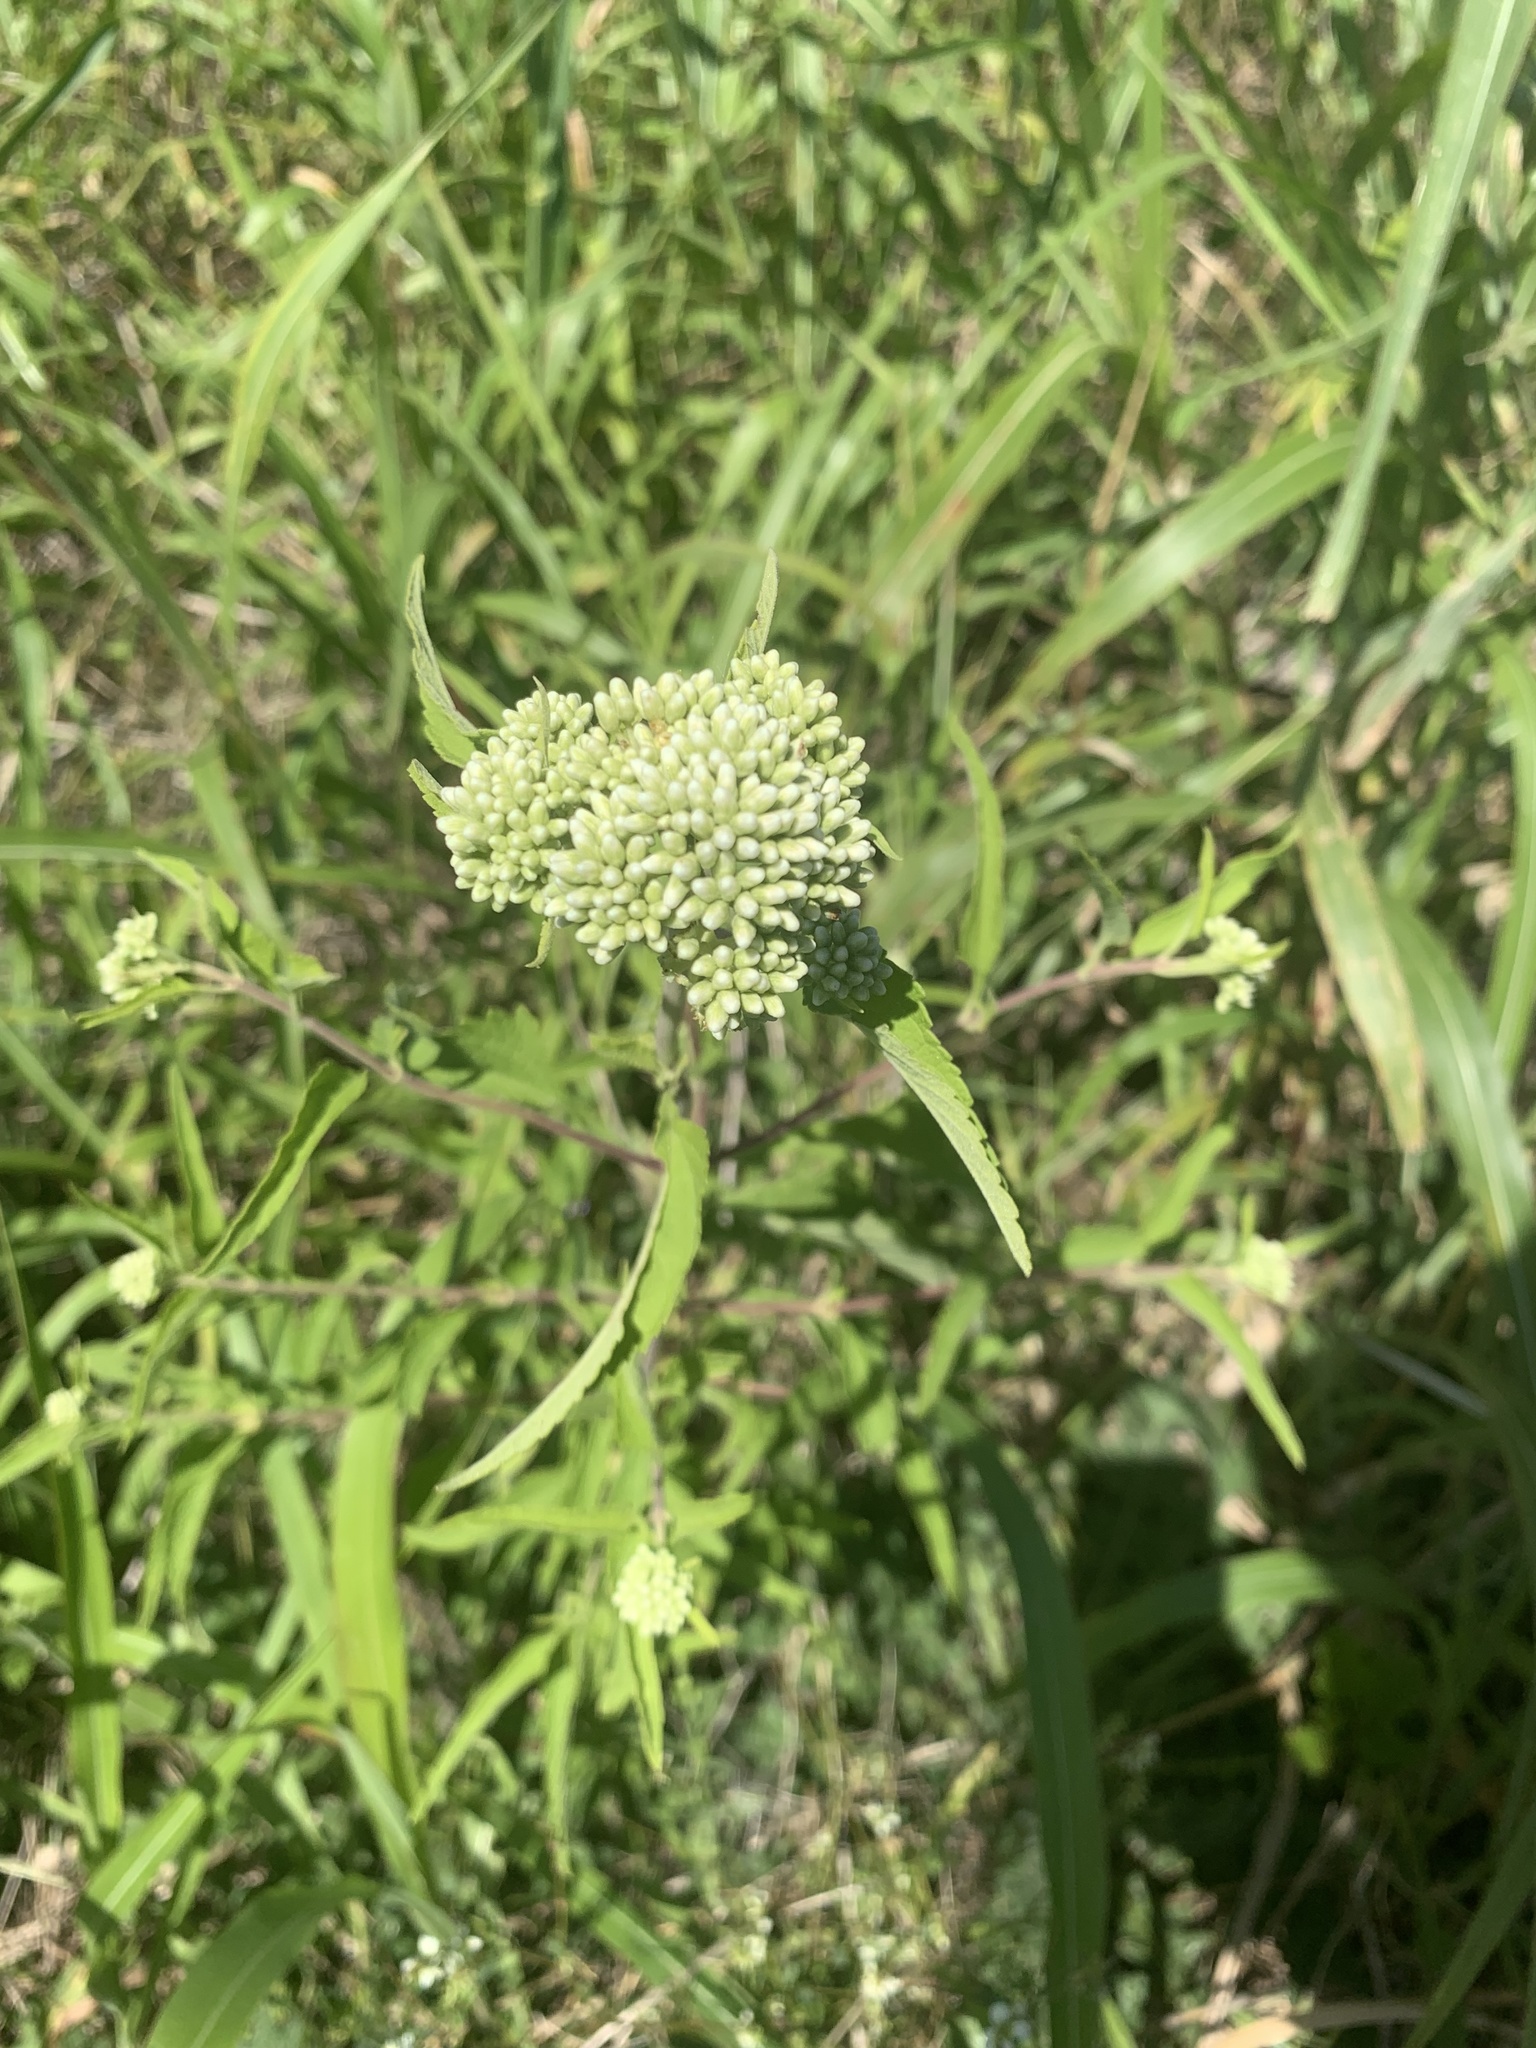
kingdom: Plantae
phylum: Tracheophyta
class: Magnoliopsida
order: Asterales
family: Asteraceae
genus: Austroeupatorium
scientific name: Austroeupatorium inulifolium
